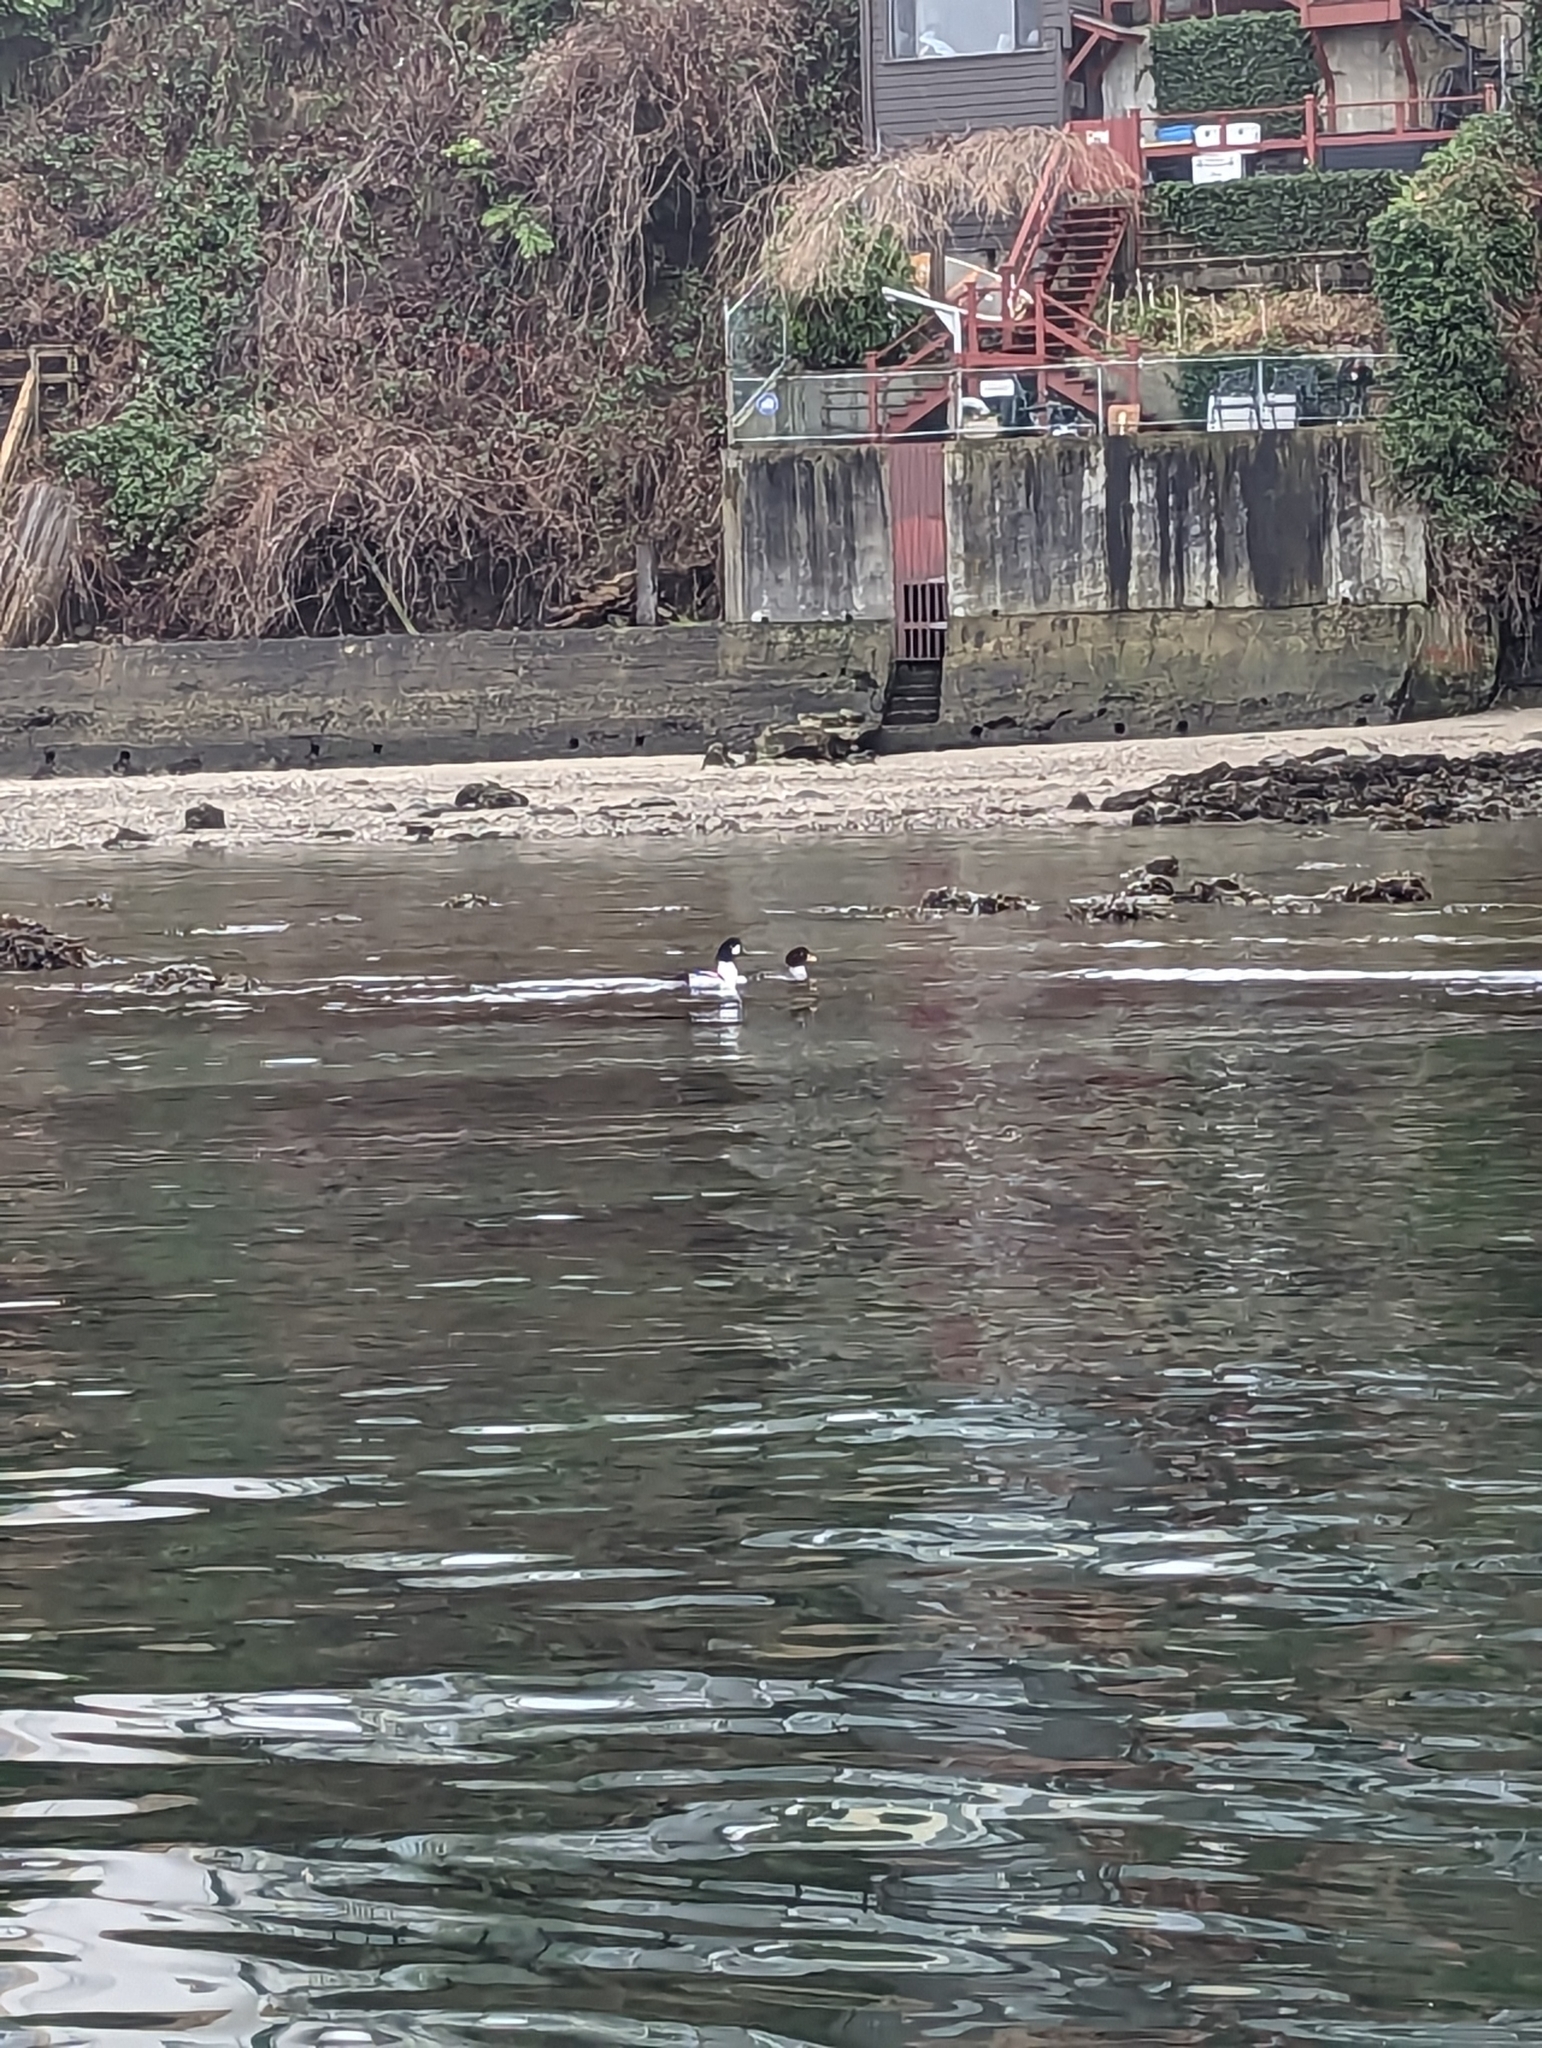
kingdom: Animalia
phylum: Chordata
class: Aves
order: Anseriformes
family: Anatidae
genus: Bucephala
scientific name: Bucephala islandica
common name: Barrow's goldeneye
